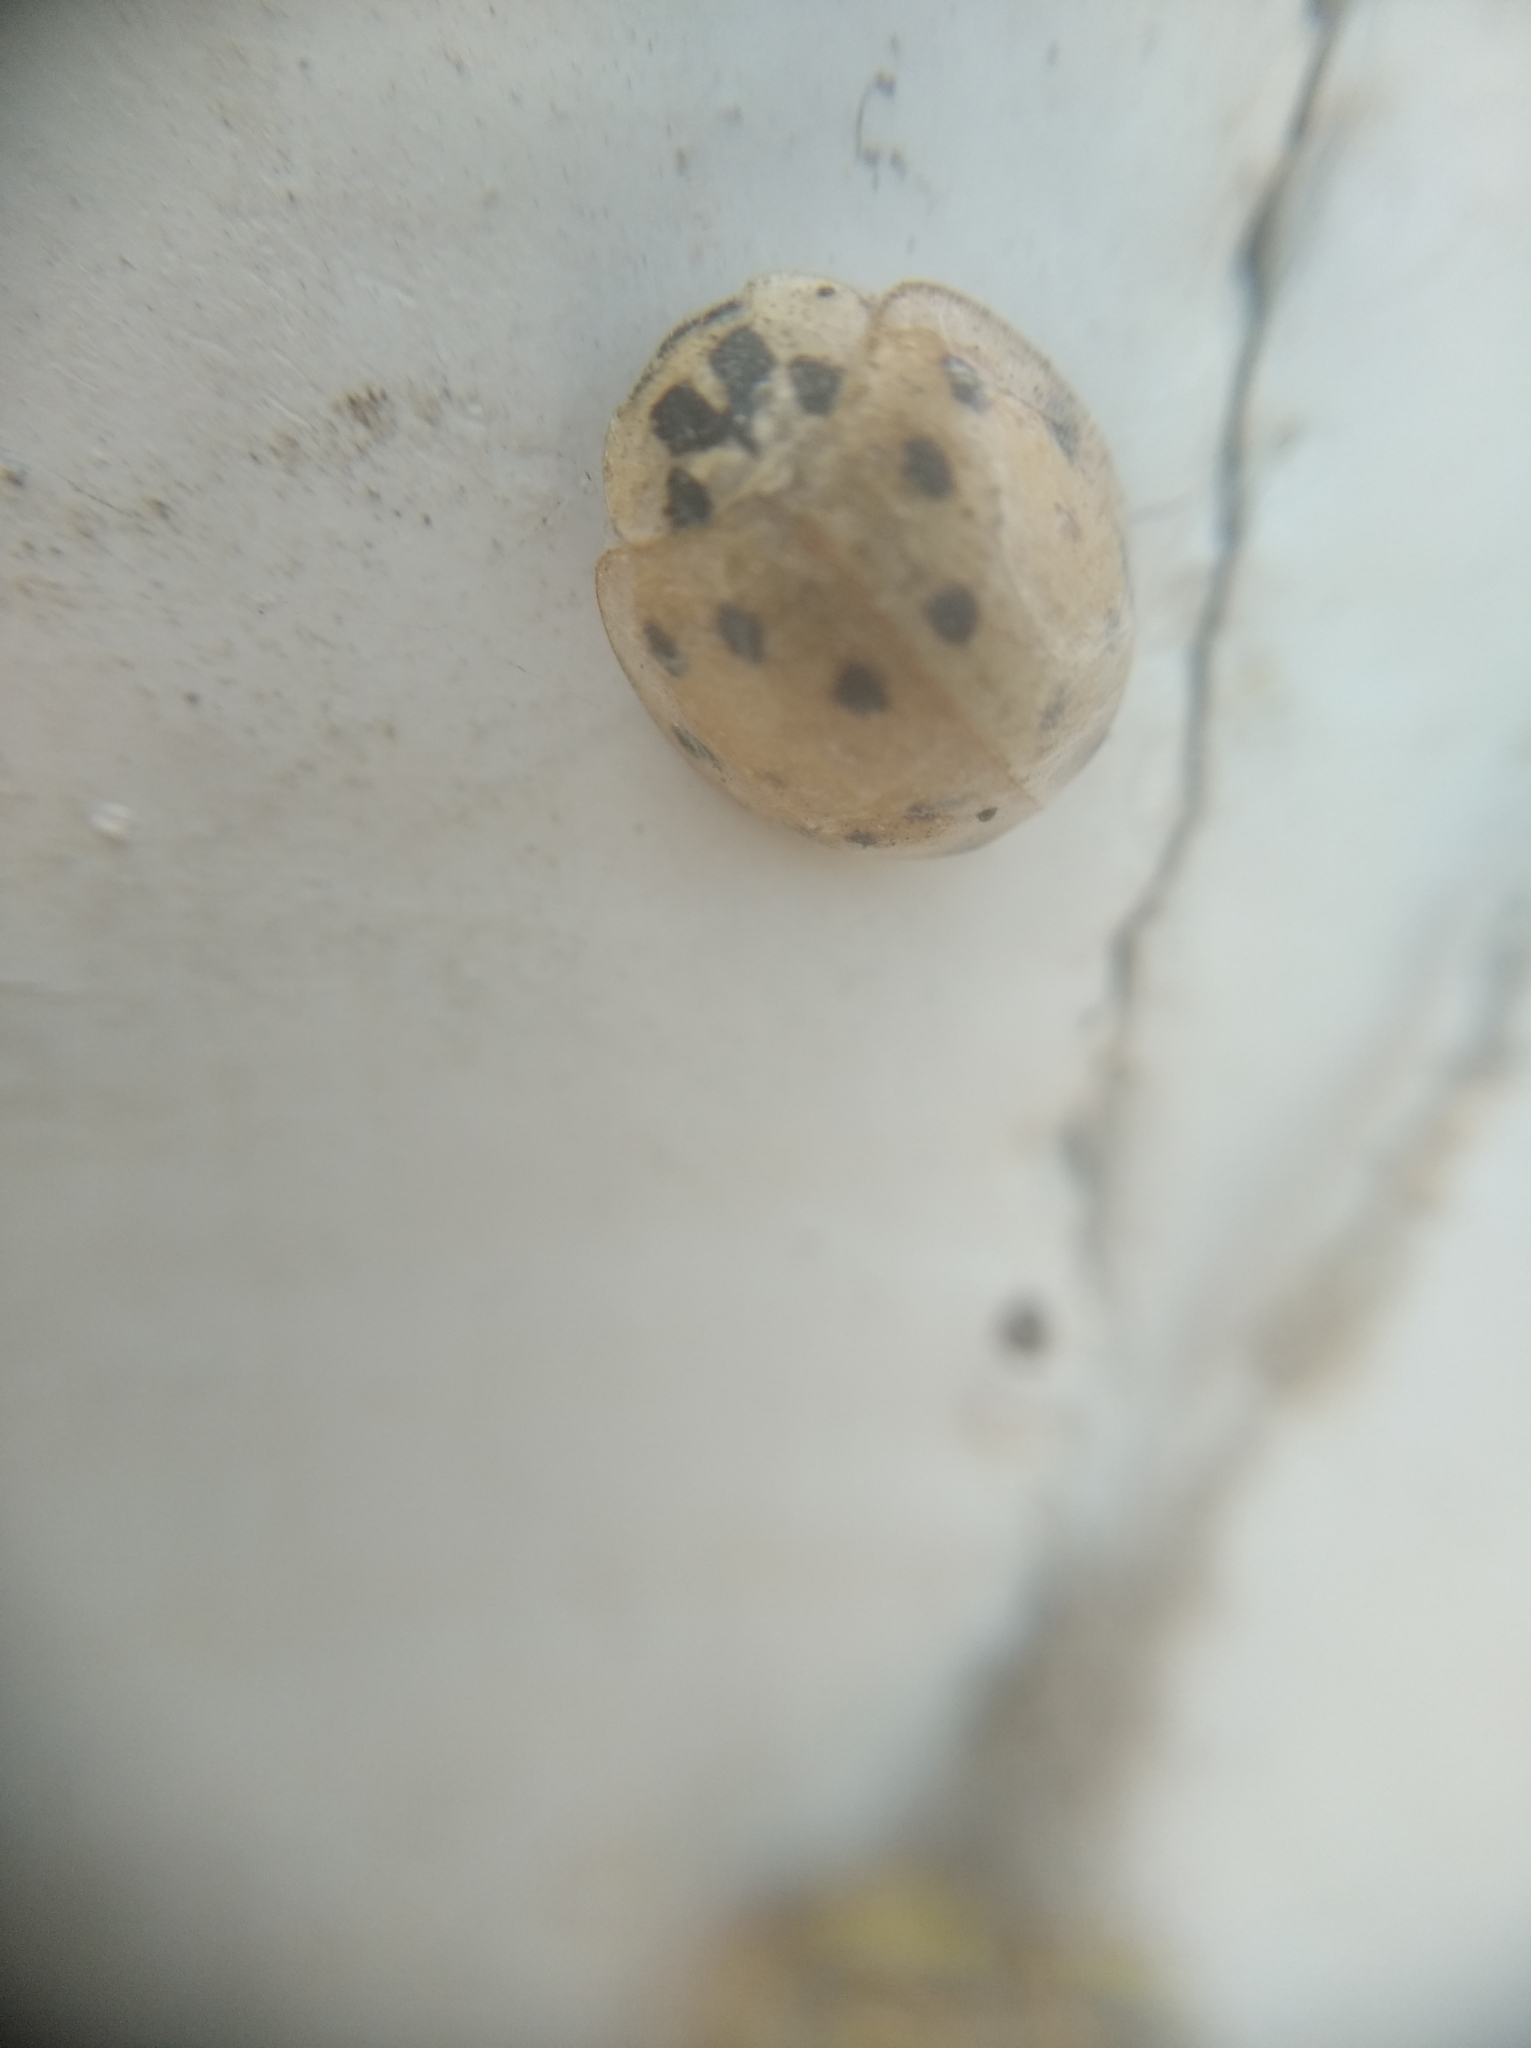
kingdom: Animalia
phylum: Arthropoda
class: Insecta
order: Coleoptera
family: Coccinellidae
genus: Harmonia
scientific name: Harmonia axyridis
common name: Harlequin ladybird
